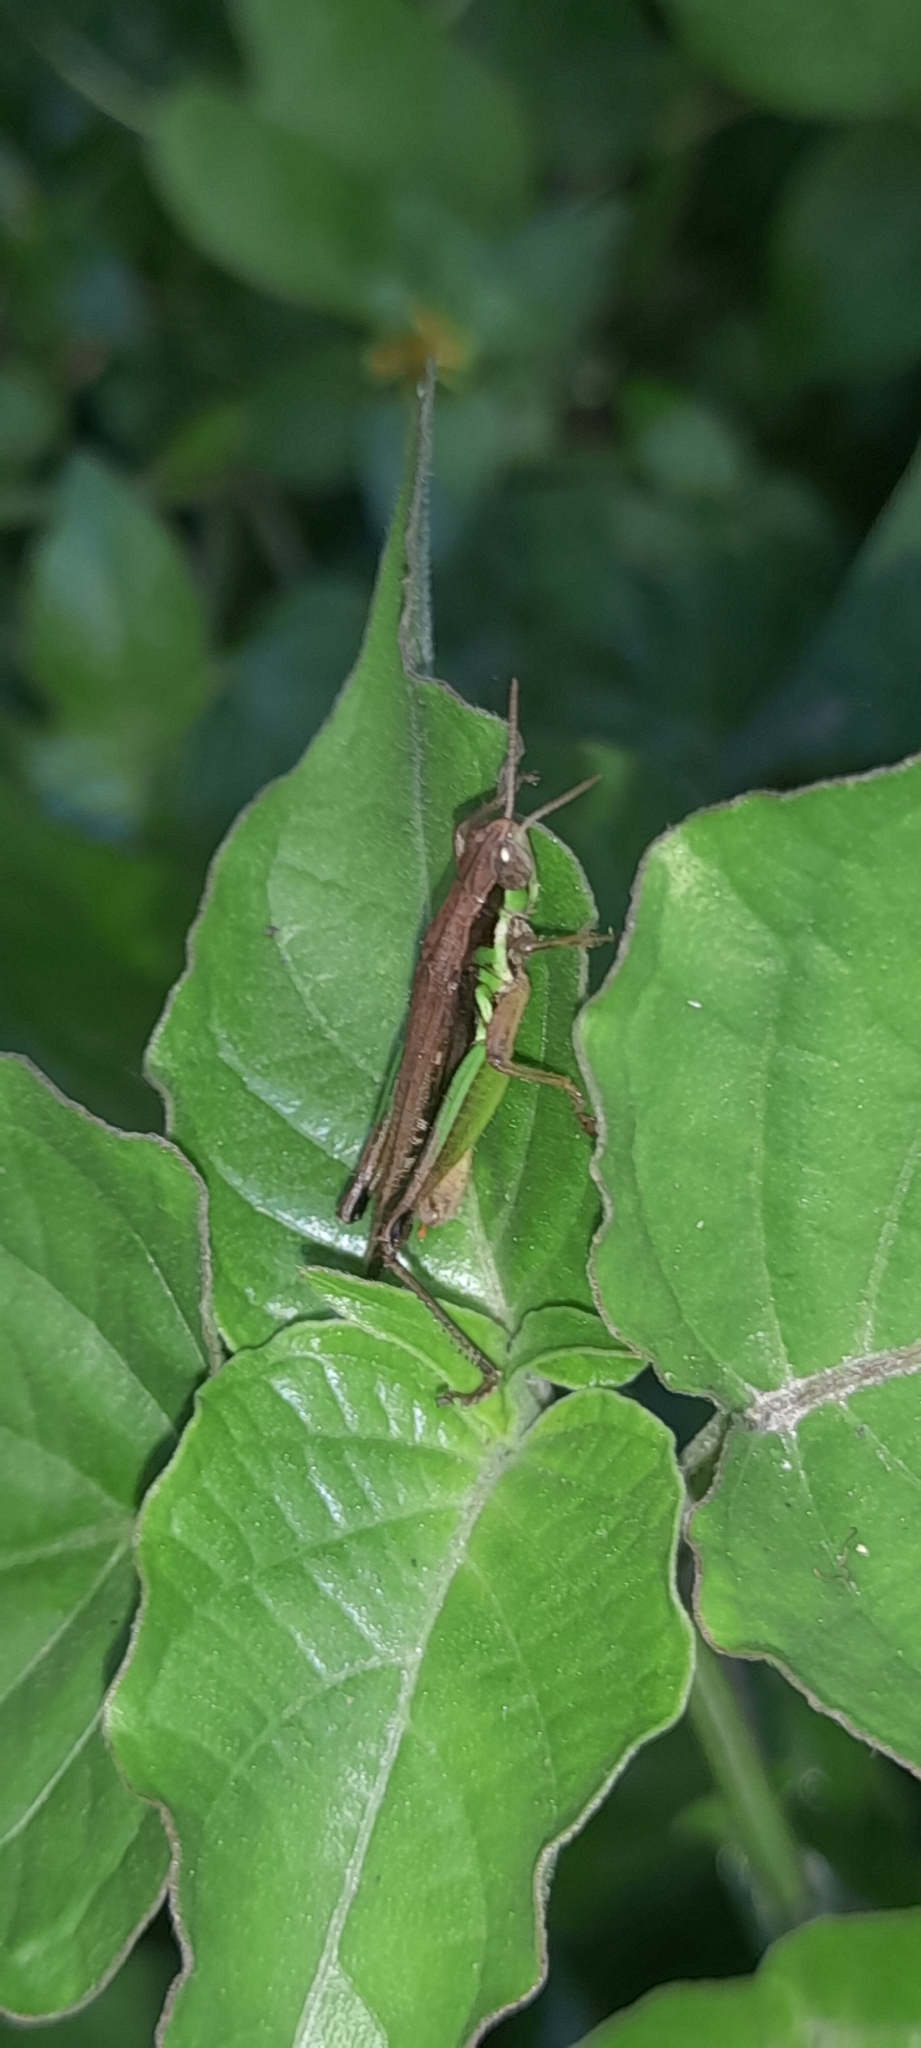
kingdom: Animalia
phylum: Arthropoda
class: Insecta
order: Orthoptera
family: Acrididae
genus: Spathosternum
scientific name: Spathosternum prasiniferum
